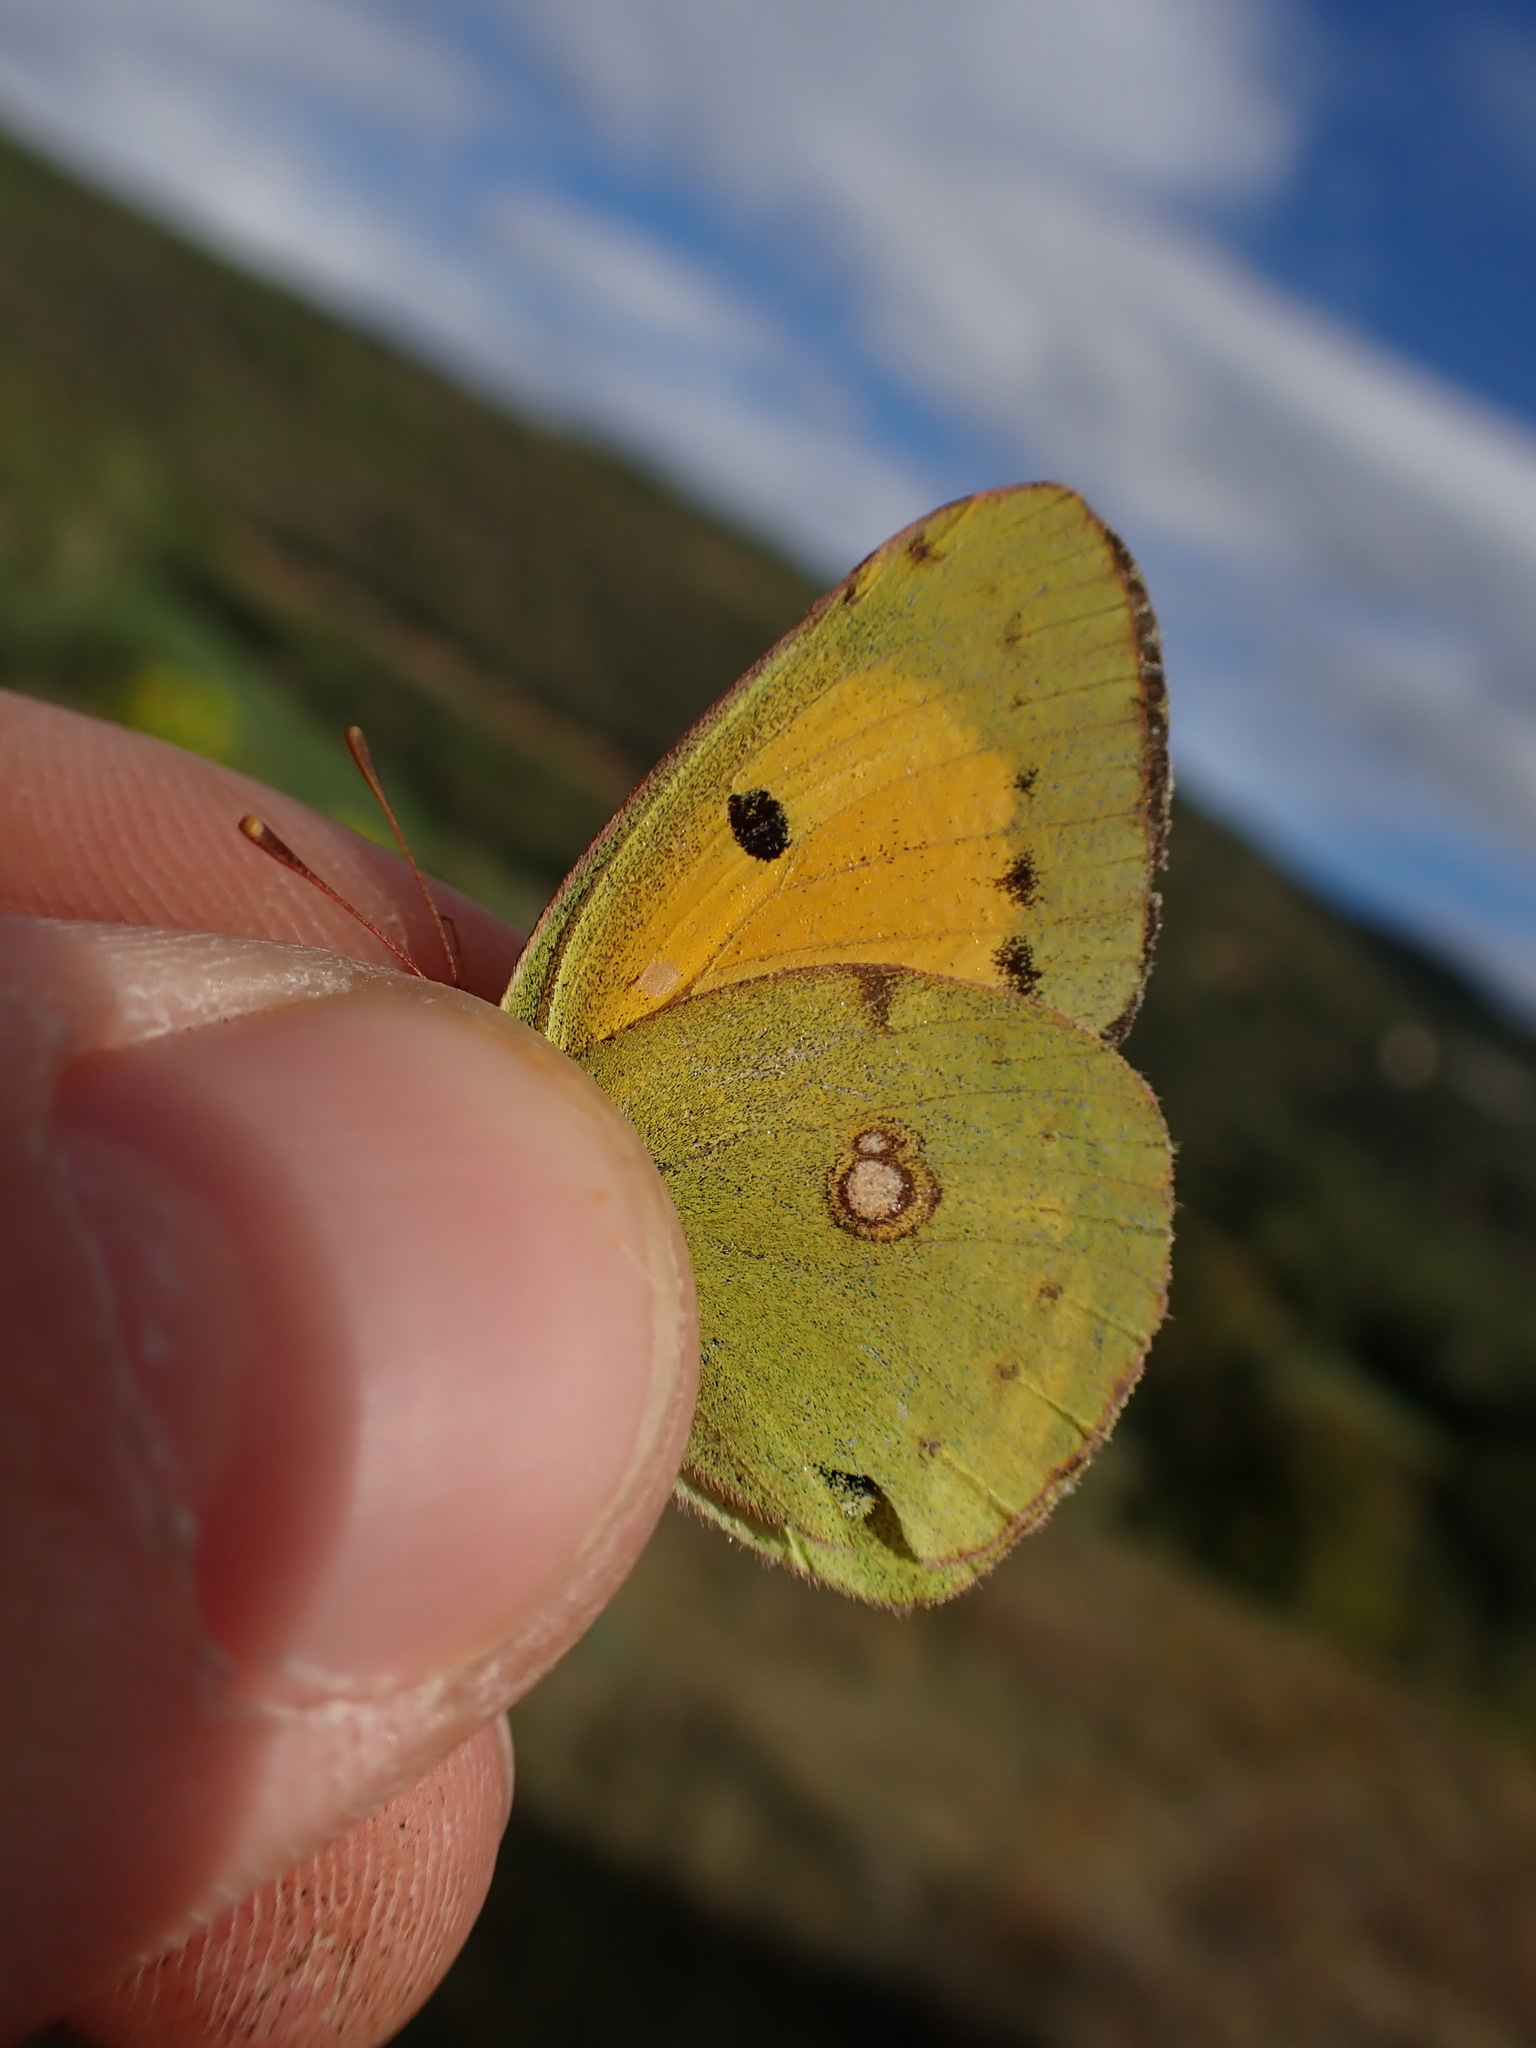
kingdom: Animalia
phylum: Arthropoda
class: Insecta
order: Lepidoptera
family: Pieridae
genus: Colias
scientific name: Colias croceus
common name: Clouded yellow
